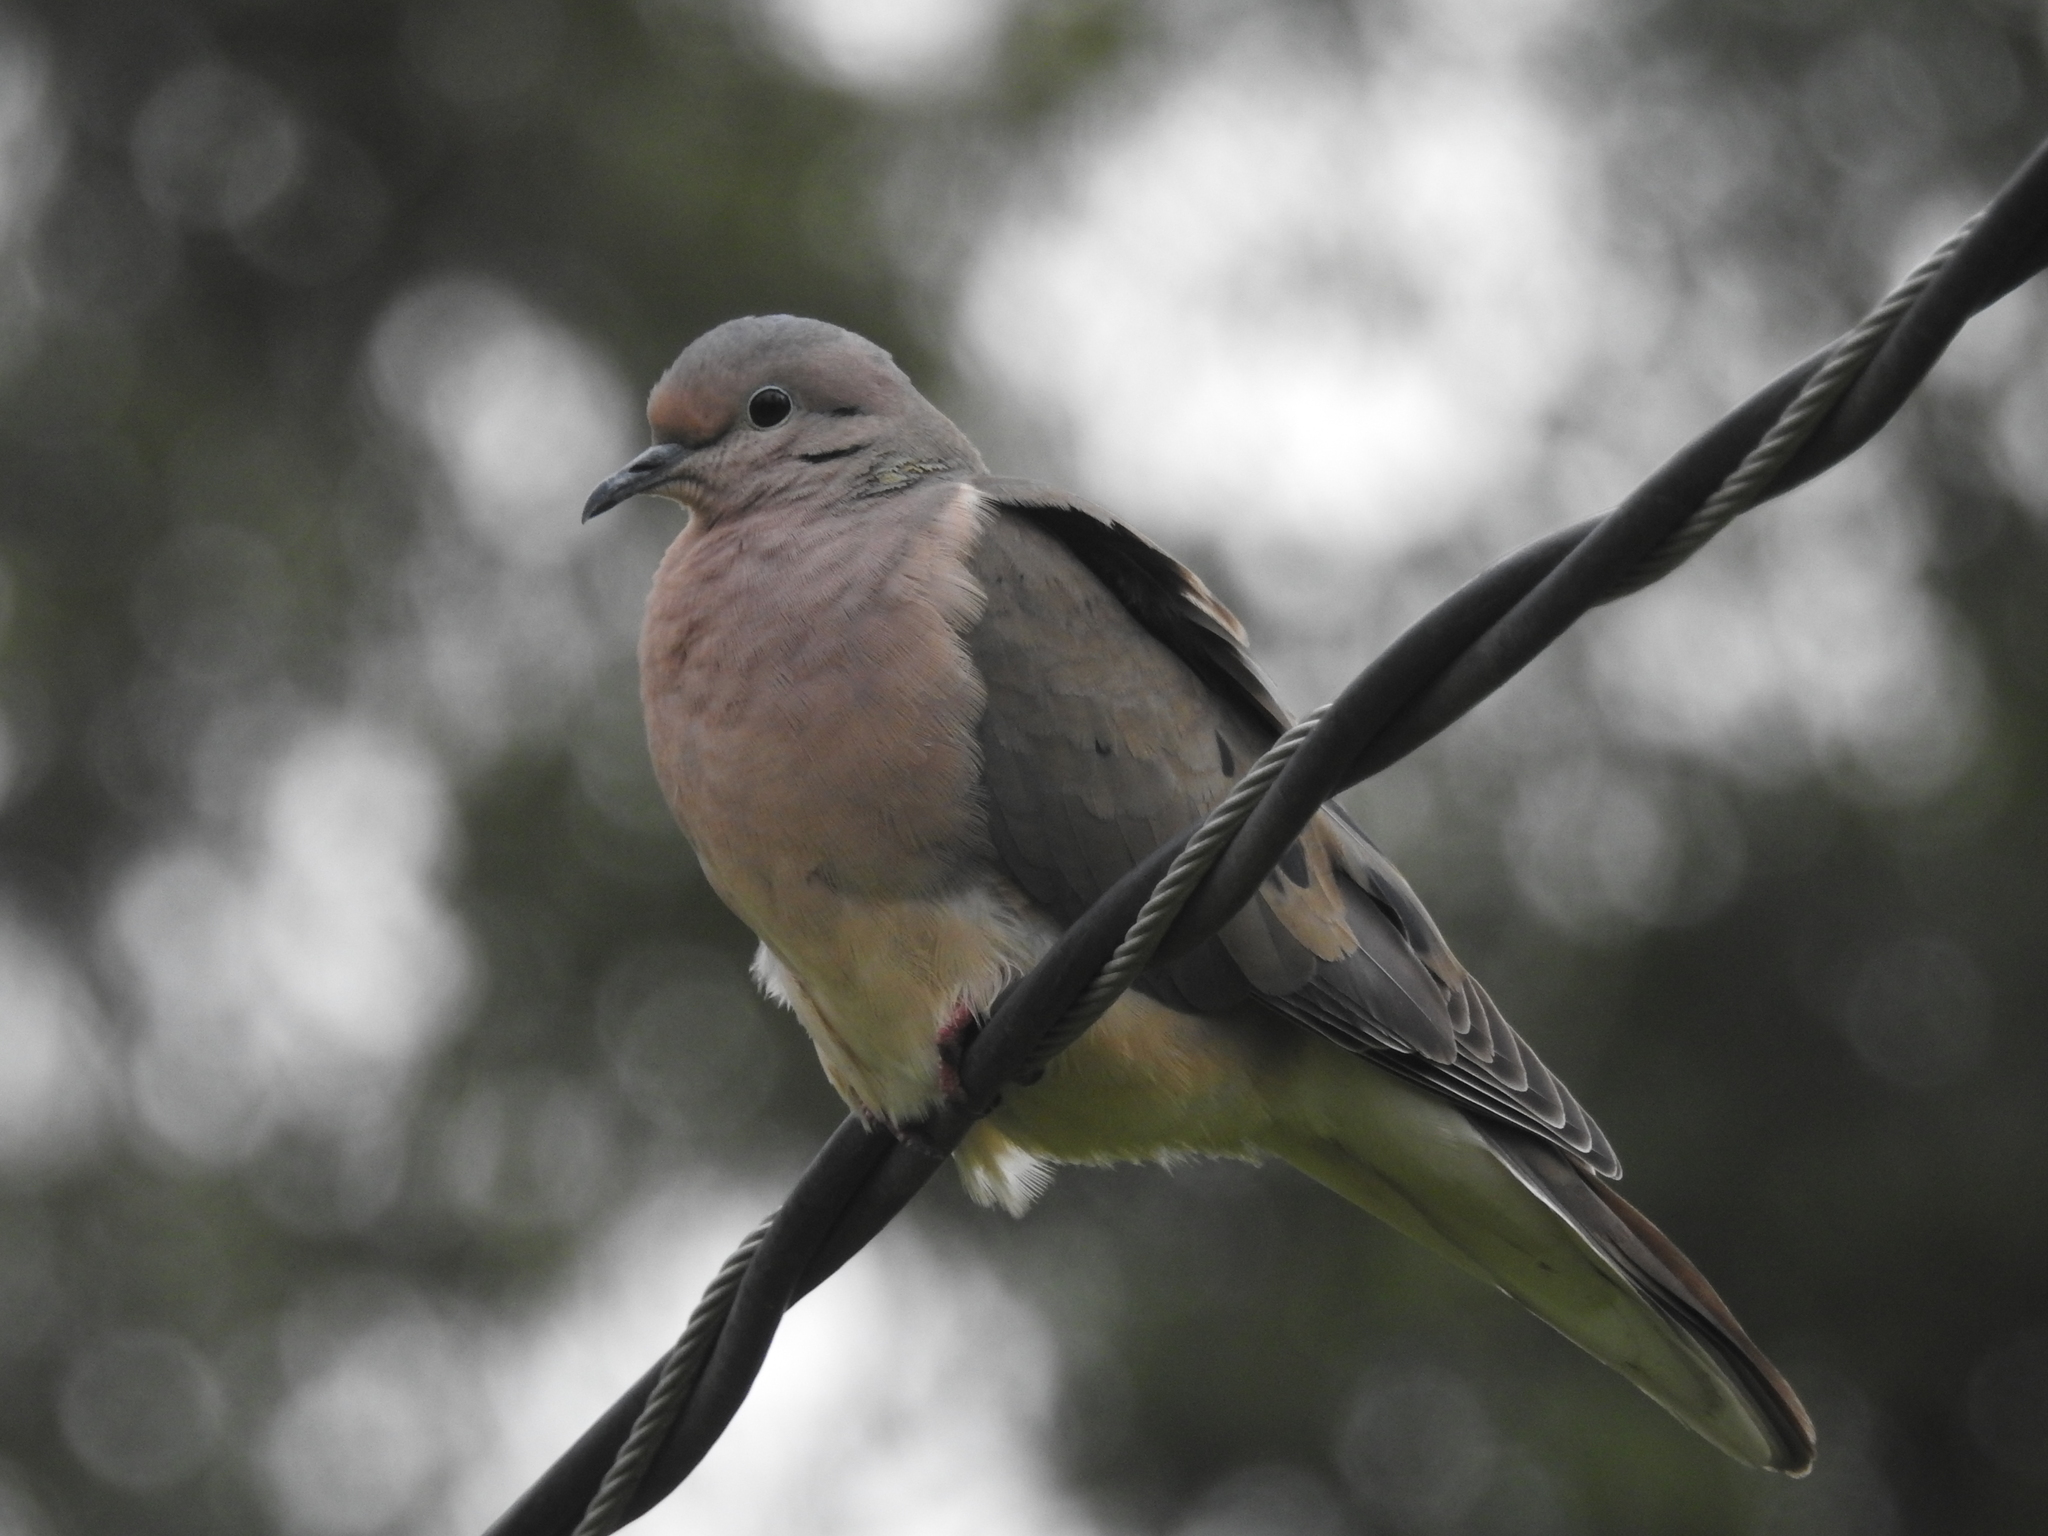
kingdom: Animalia
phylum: Chordata
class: Aves
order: Columbiformes
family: Columbidae
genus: Zenaida
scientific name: Zenaida auriculata
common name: Eared dove
